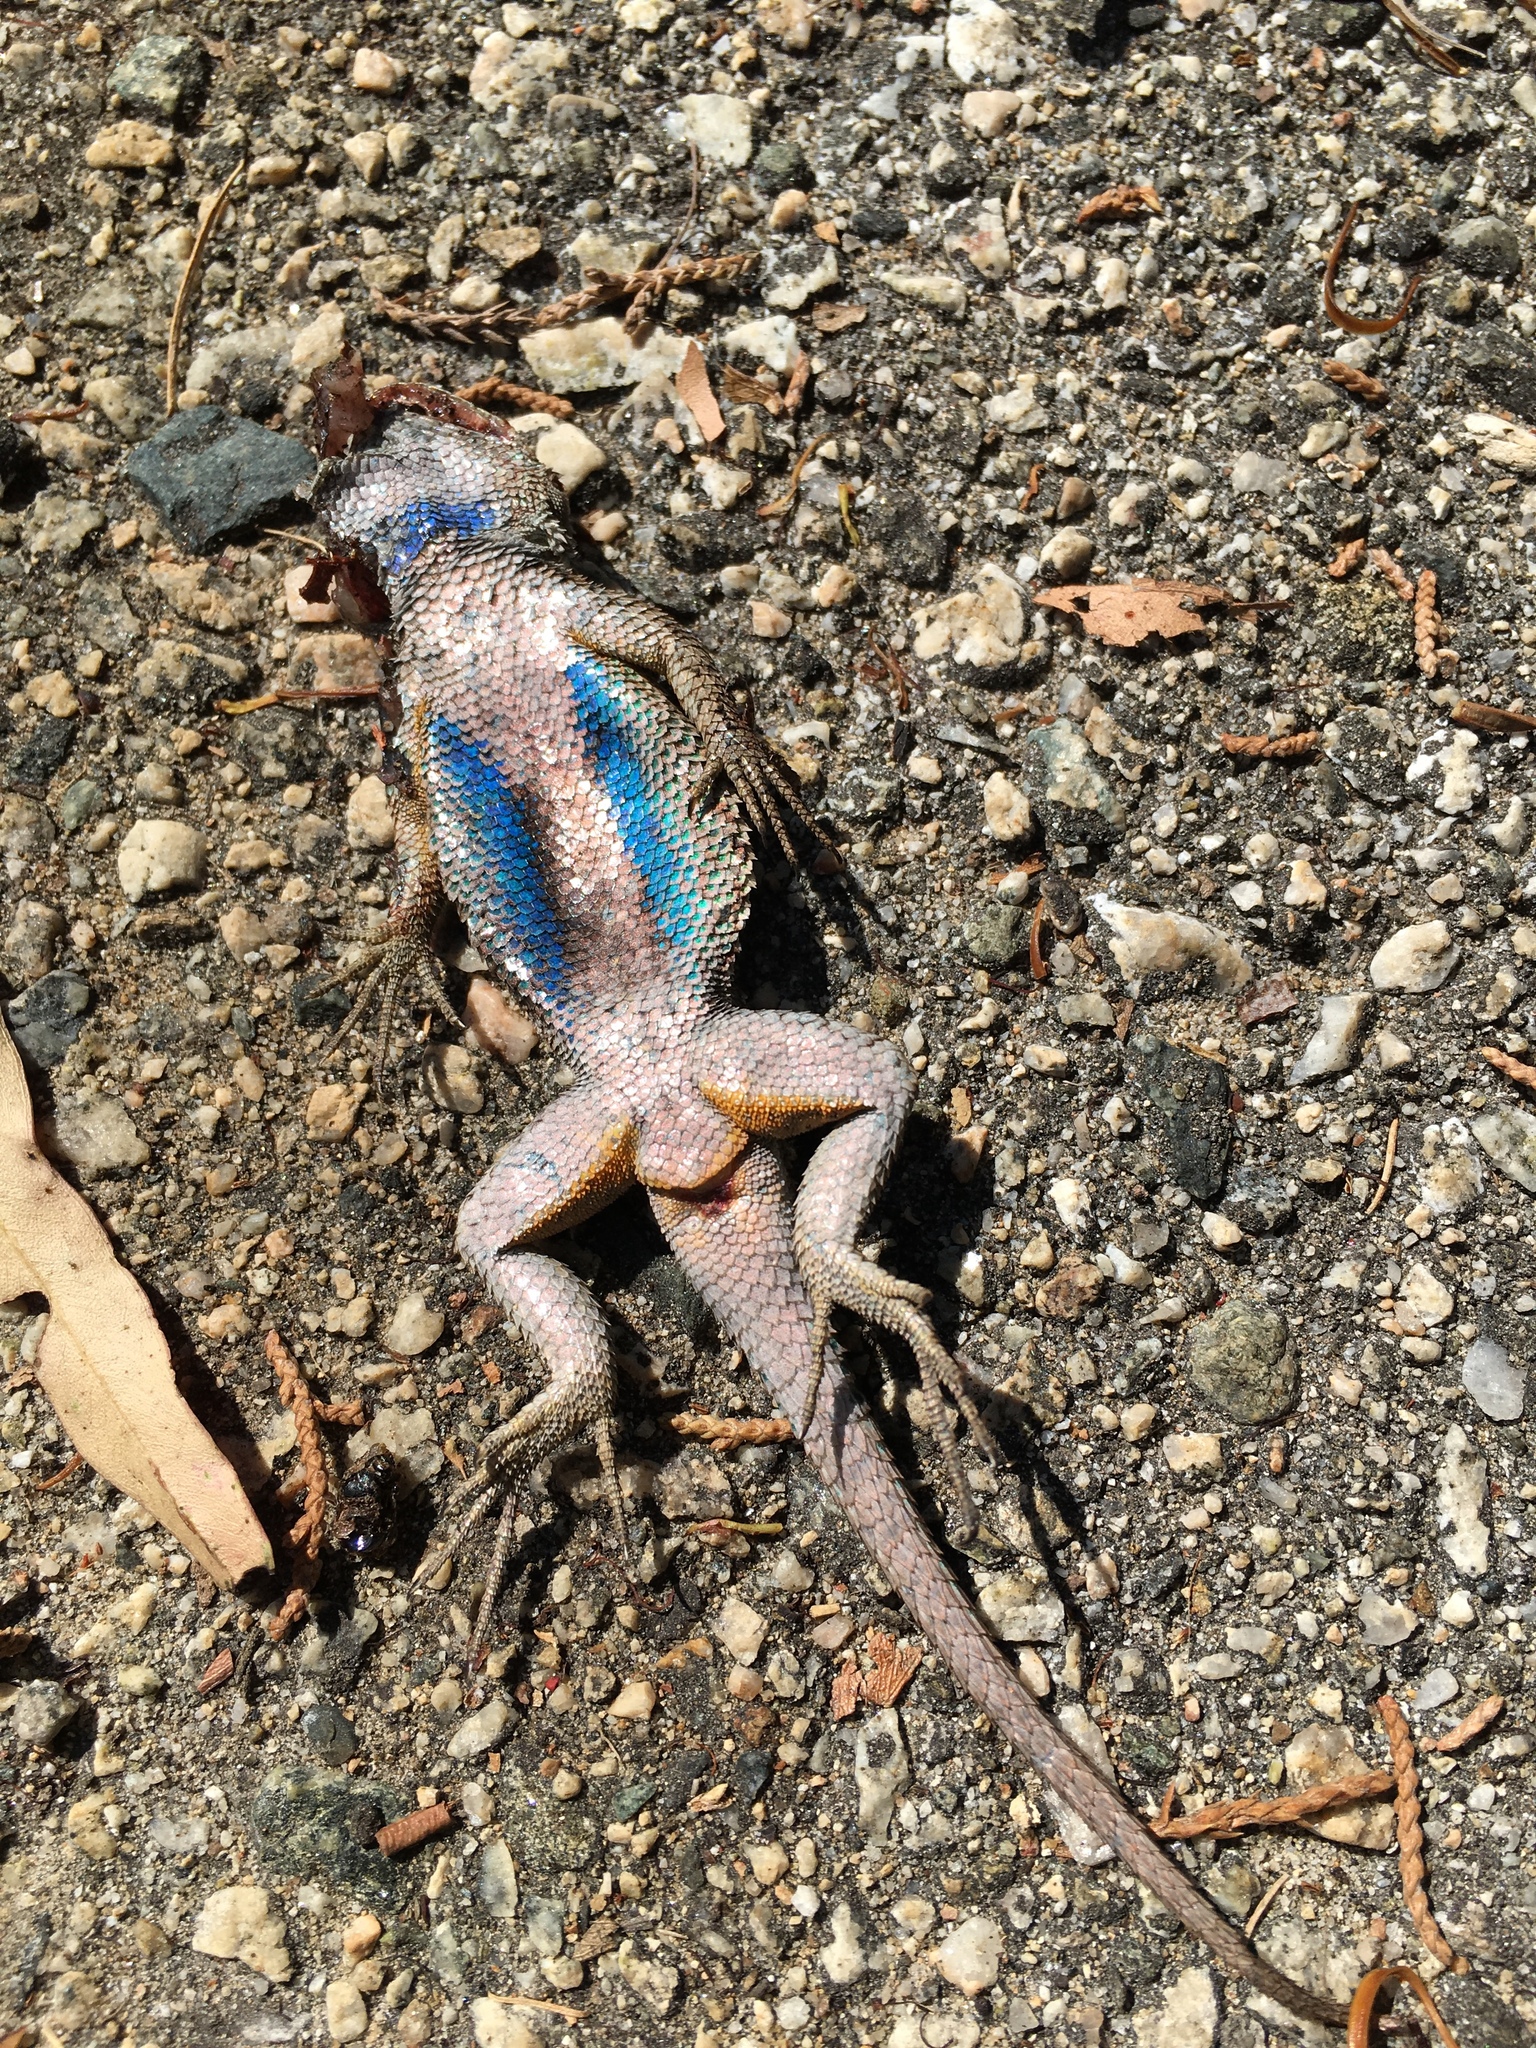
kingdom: Animalia
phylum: Chordata
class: Squamata
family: Phrynosomatidae
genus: Sceloporus
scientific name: Sceloporus occidentalis
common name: Western fence lizard
